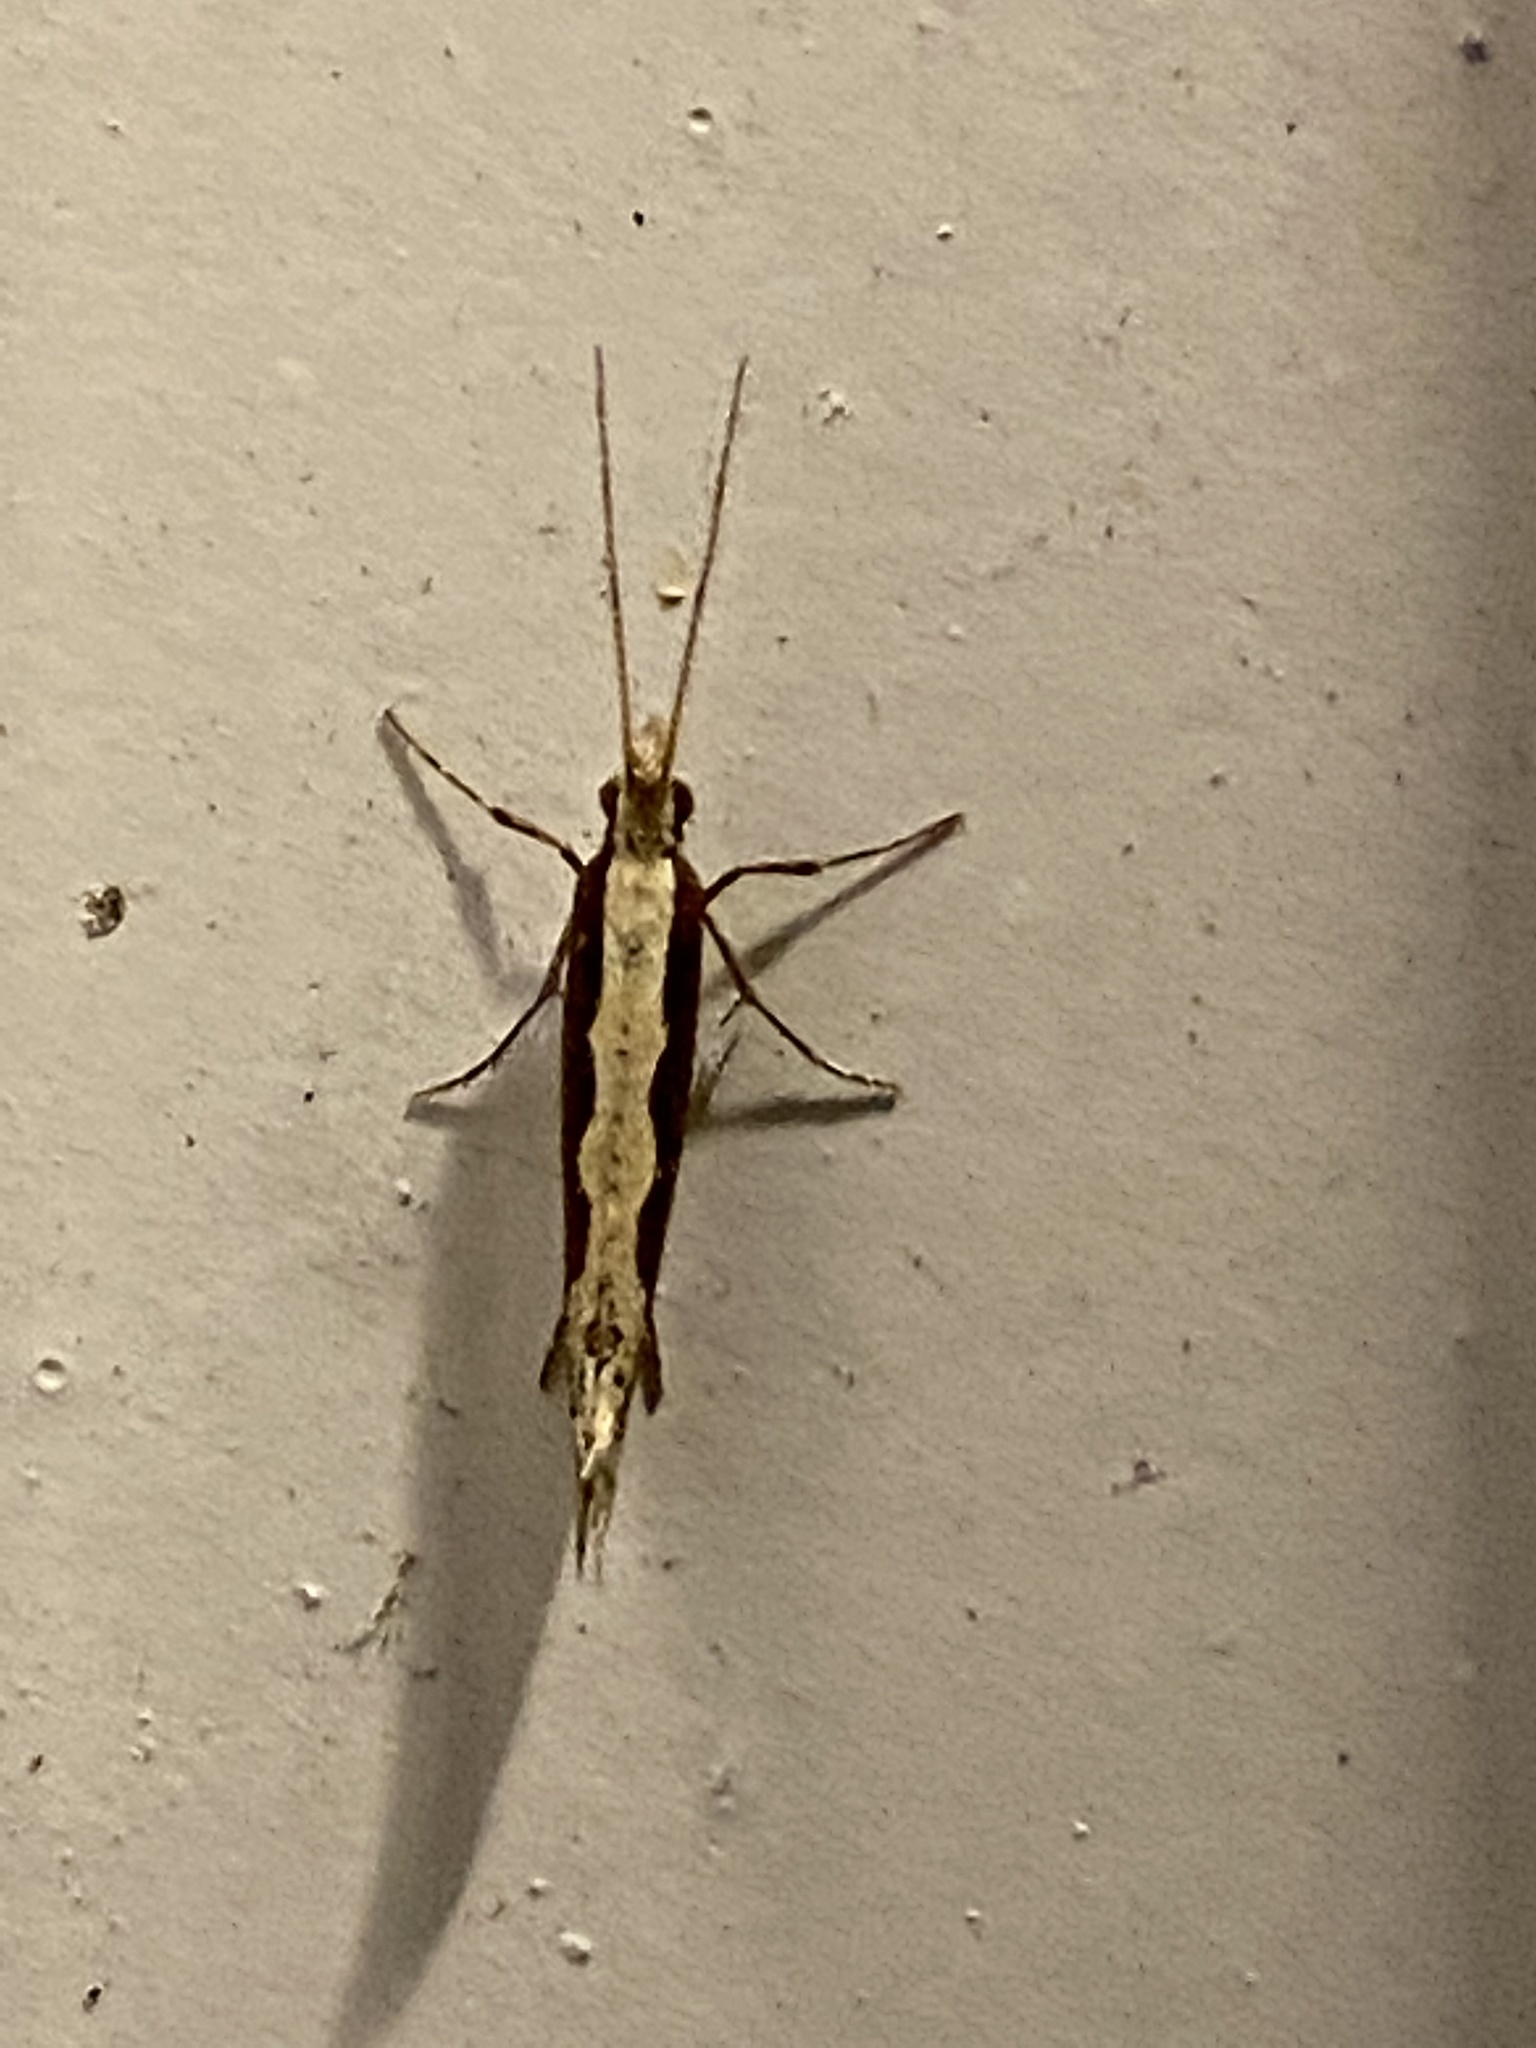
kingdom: Animalia
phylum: Arthropoda
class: Insecta
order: Lepidoptera
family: Plutellidae
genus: Plutella
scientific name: Plutella xylostella
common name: Diamond-back moth
